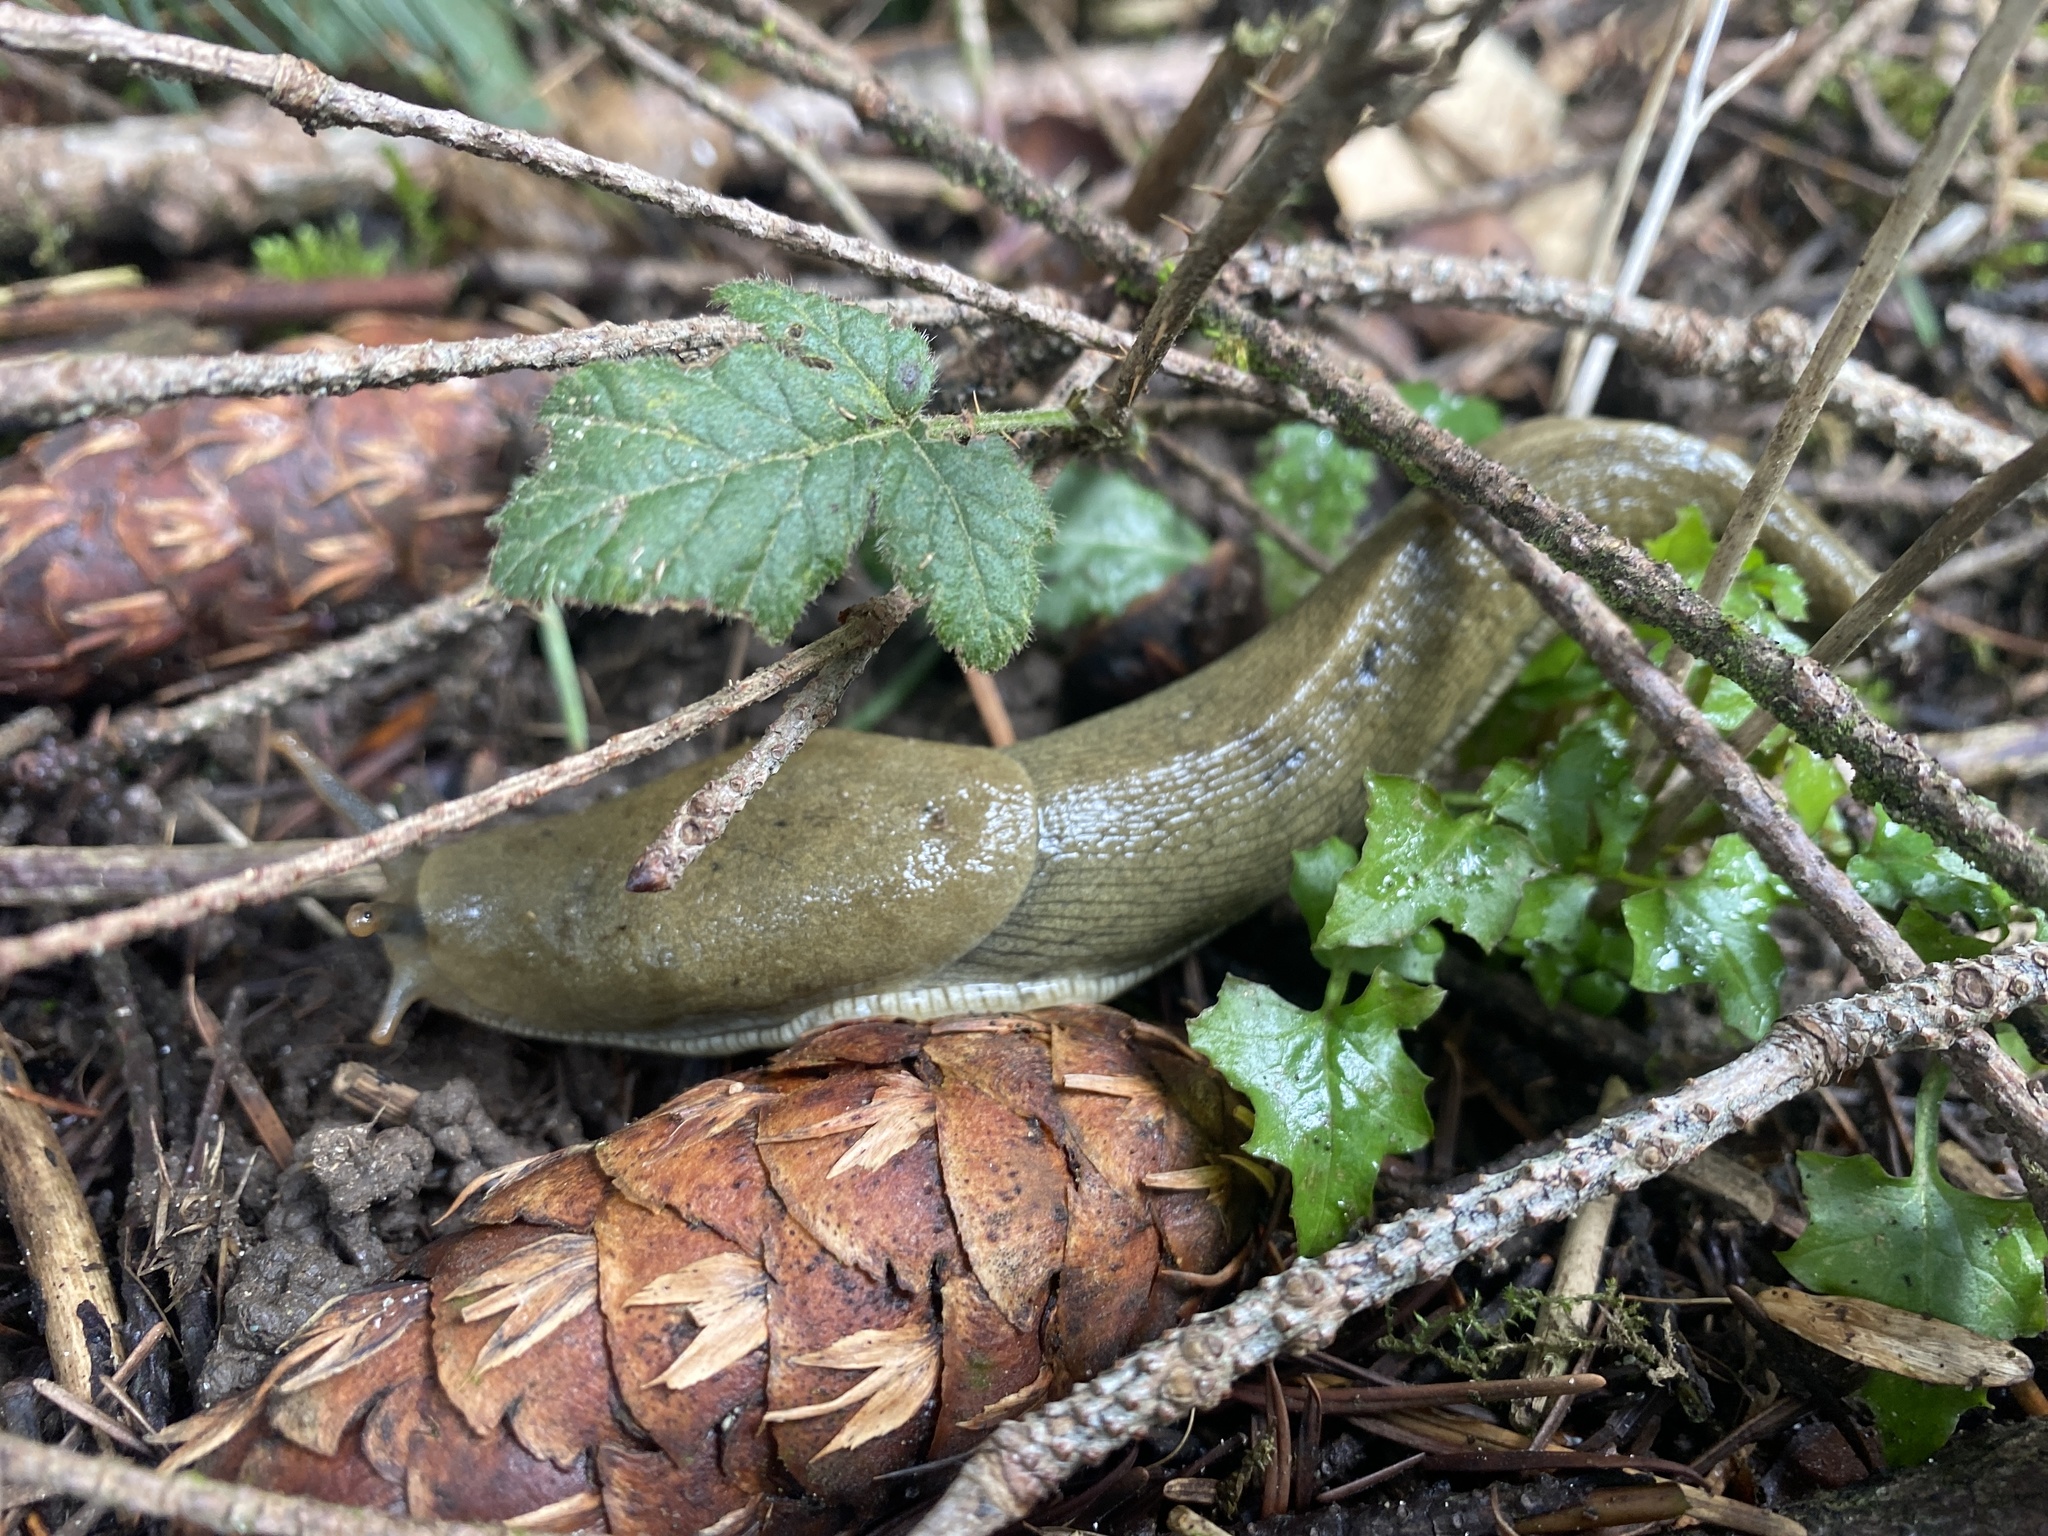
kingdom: Animalia
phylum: Mollusca
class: Gastropoda
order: Stylommatophora
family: Ariolimacidae
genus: Ariolimax
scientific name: Ariolimax columbianus
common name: Pacific banana slug
